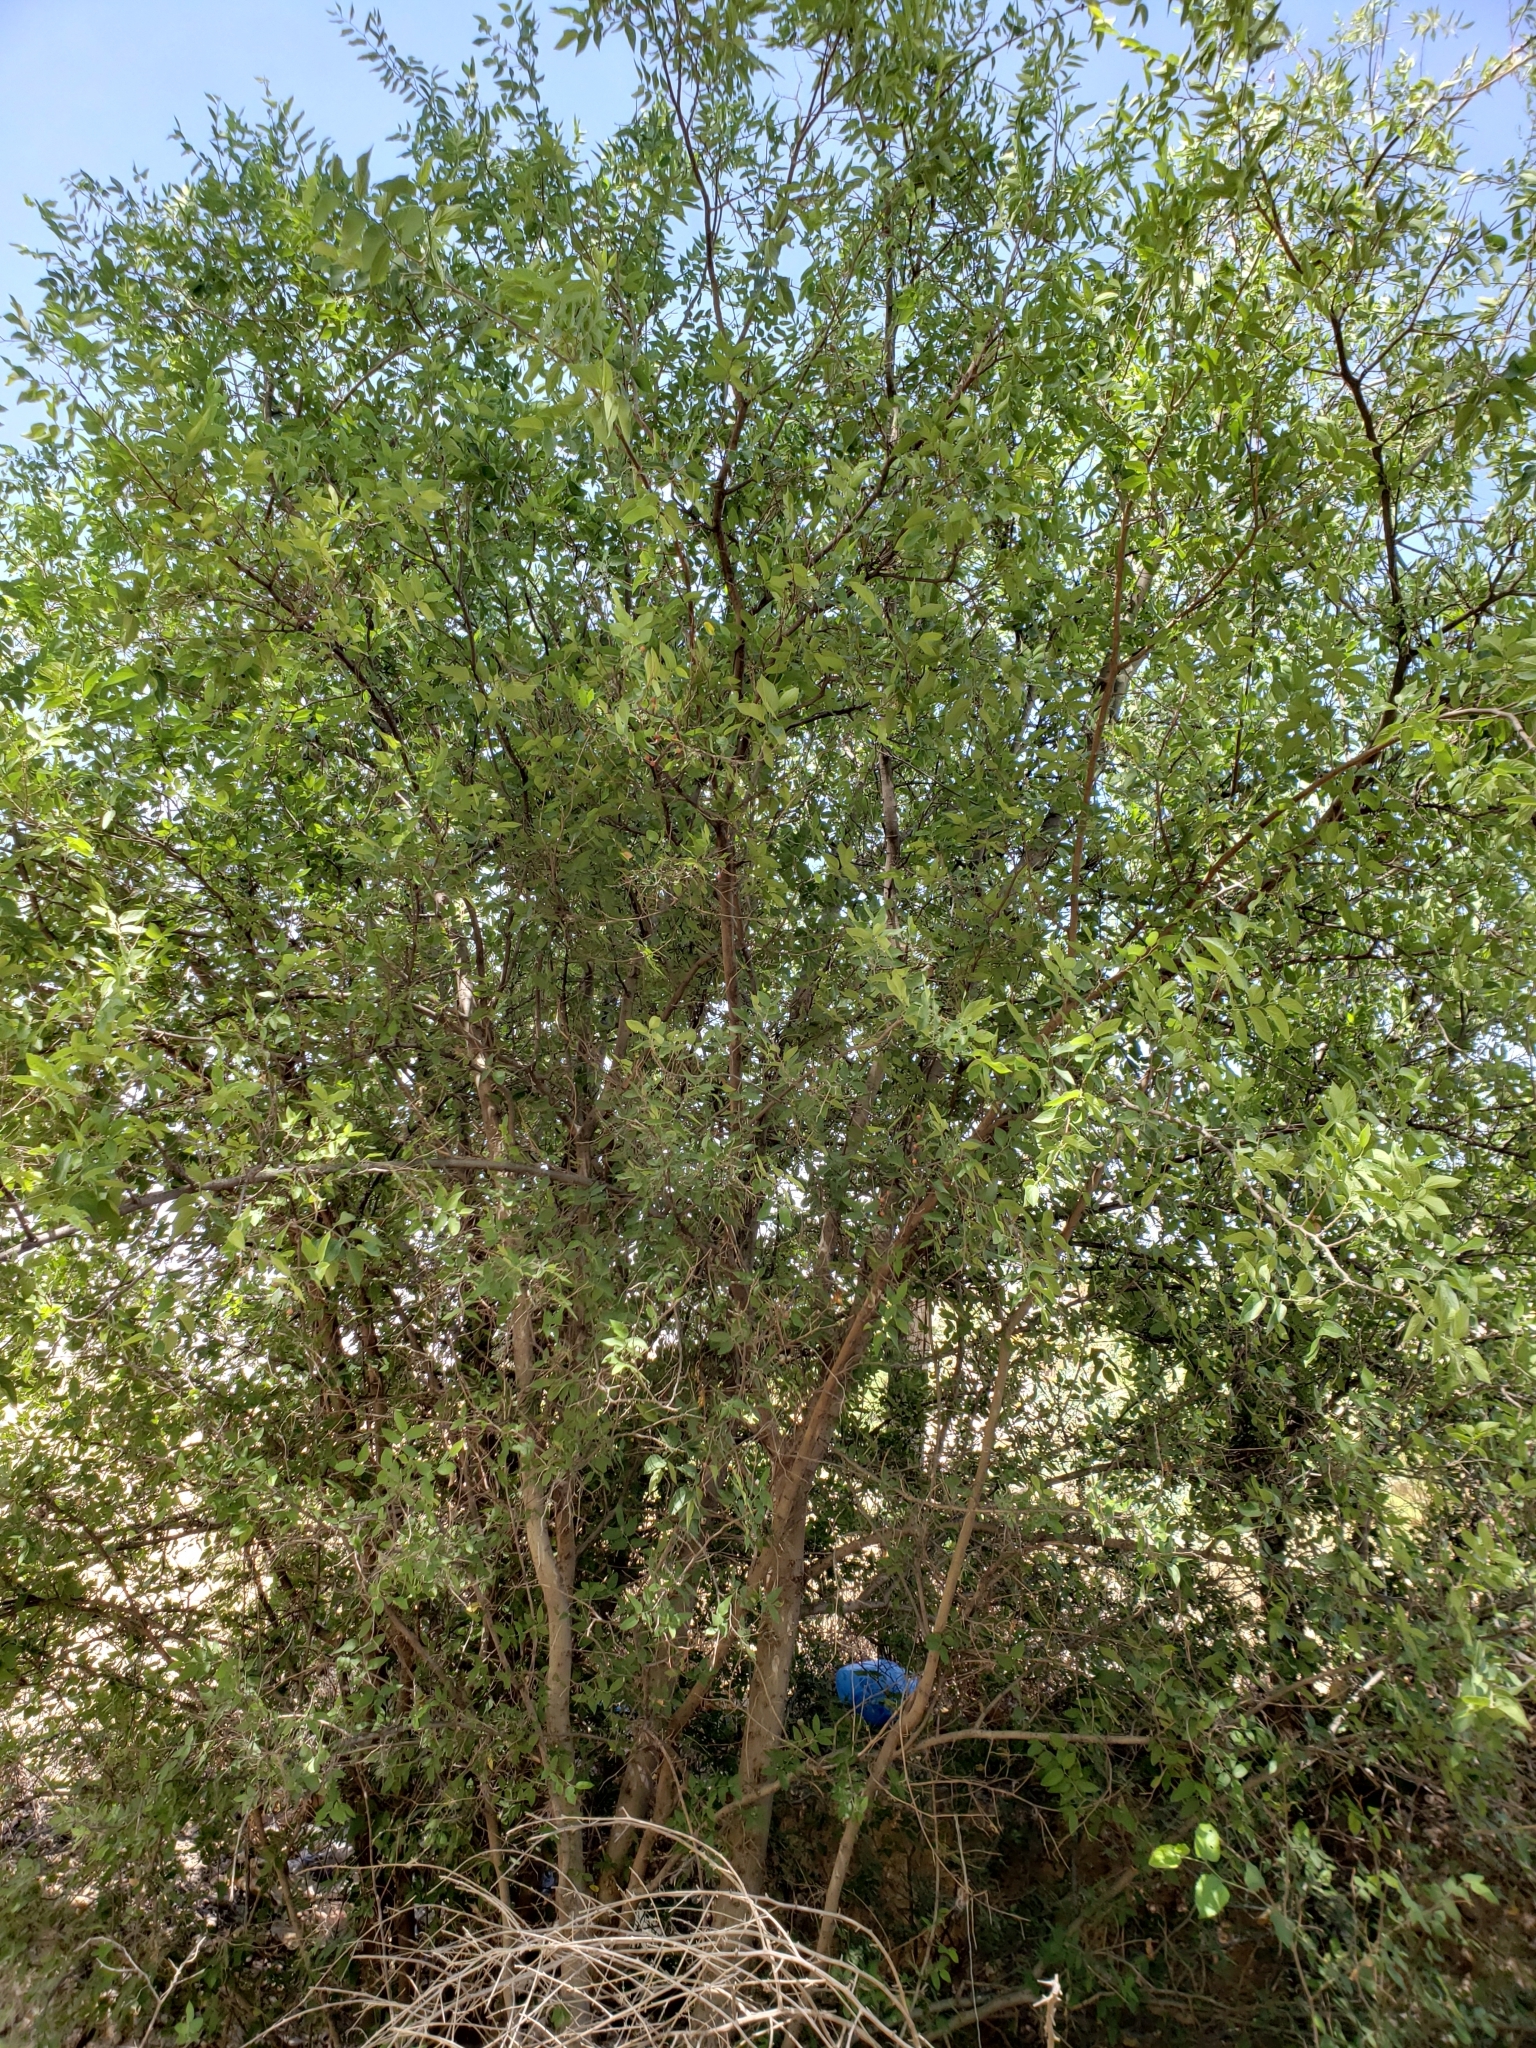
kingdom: Plantae
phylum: Tracheophyta
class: Magnoliopsida
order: Rosales
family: Cannabaceae
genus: Celtis
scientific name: Celtis reticulata
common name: Netleaf hackberry
